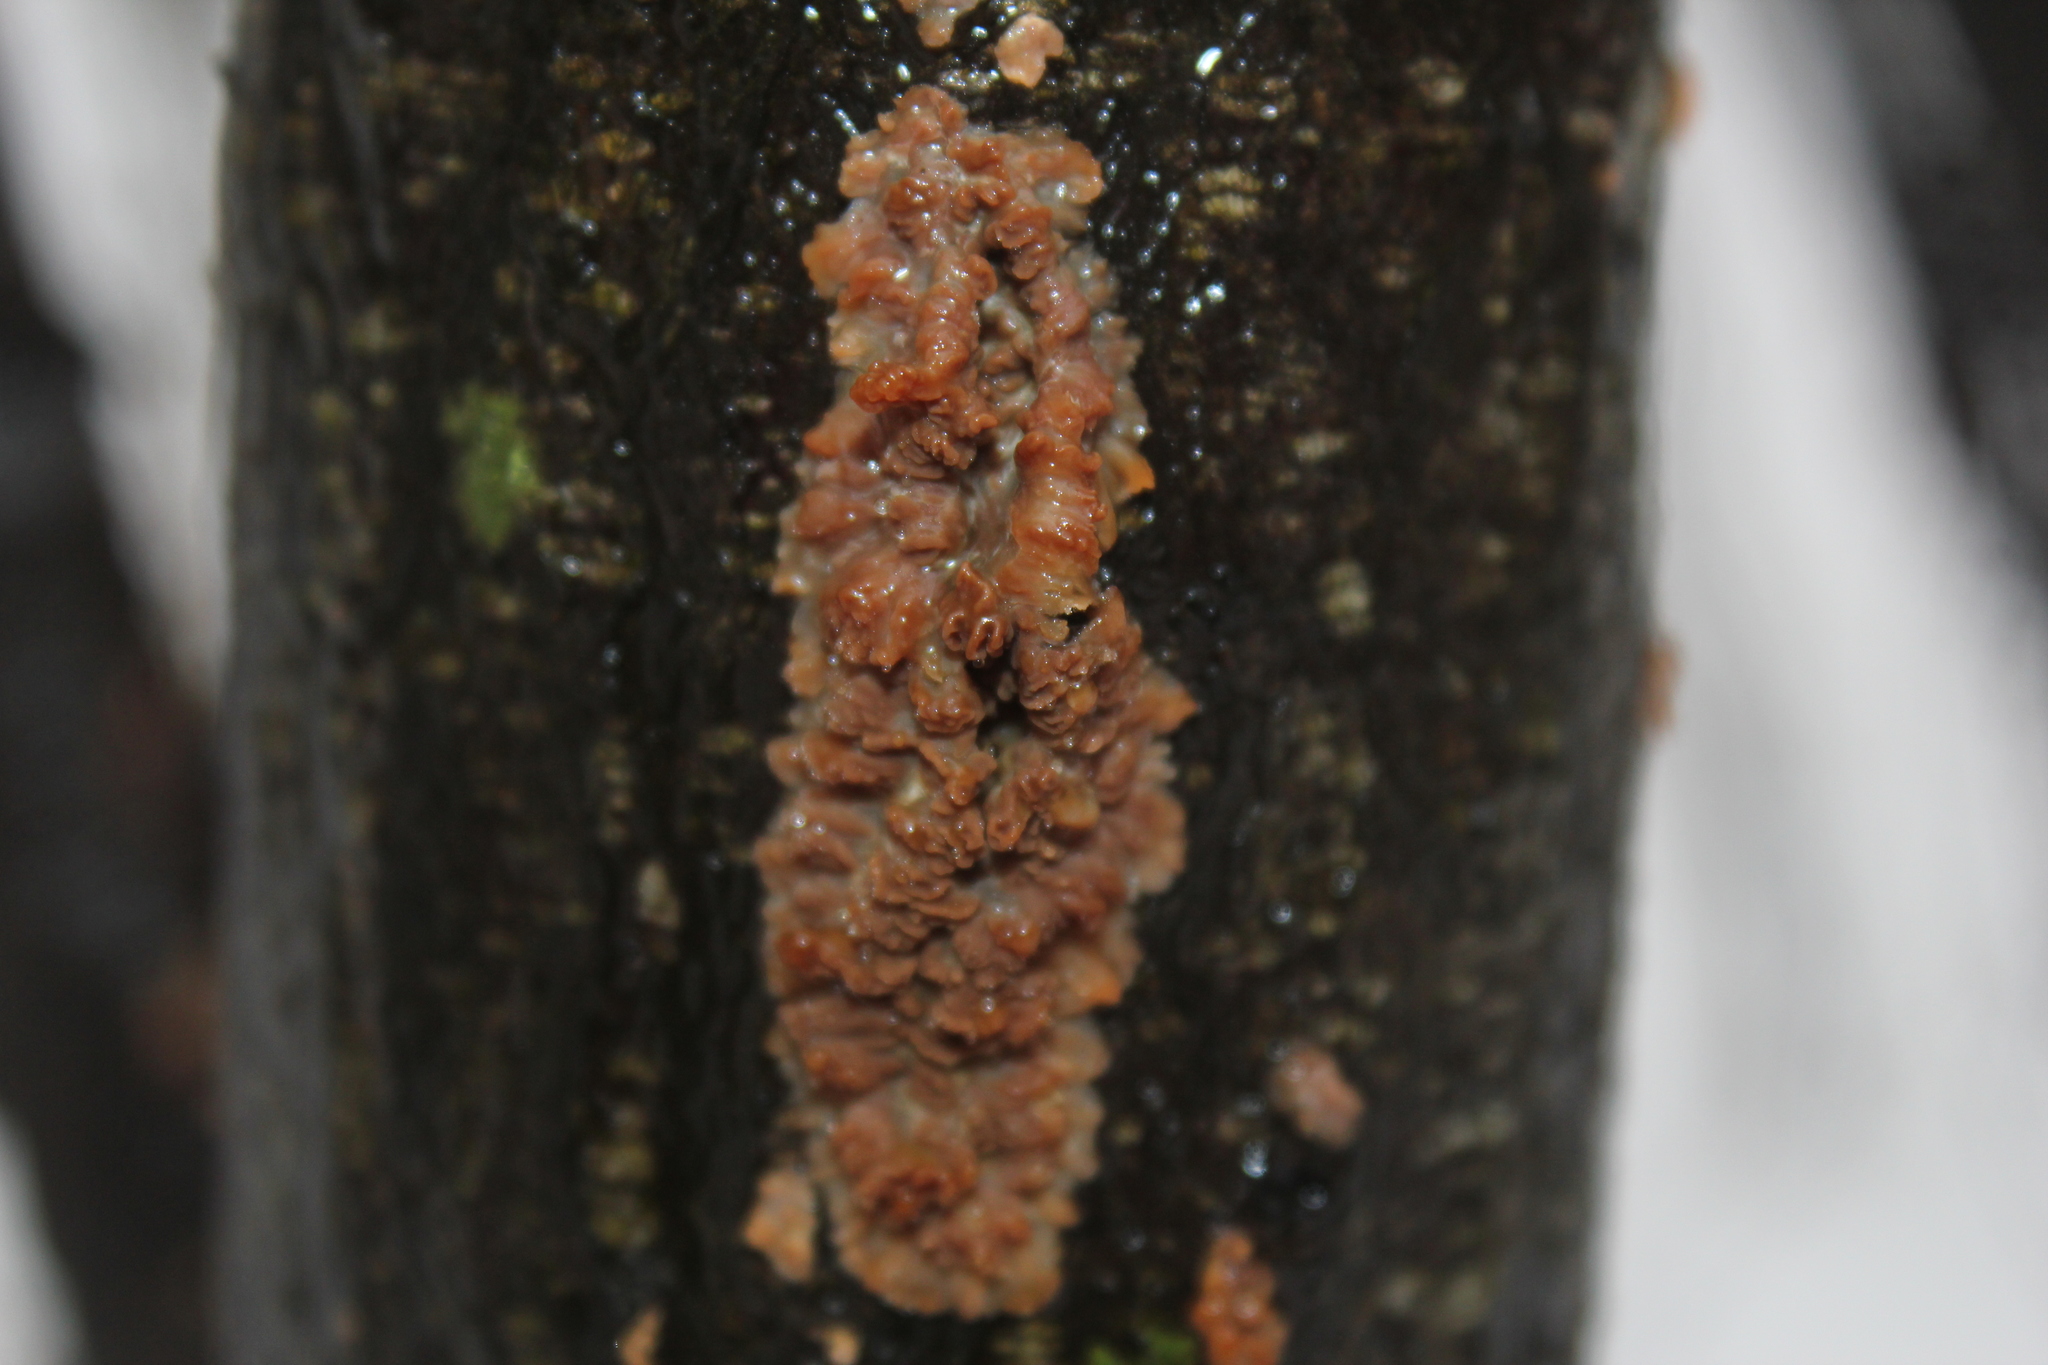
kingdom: Fungi
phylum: Basidiomycota
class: Agaricomycetes
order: Polyporales
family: Meruliaceae
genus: Phlebia
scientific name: Phlebia radiata
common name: Wrinkled crust
